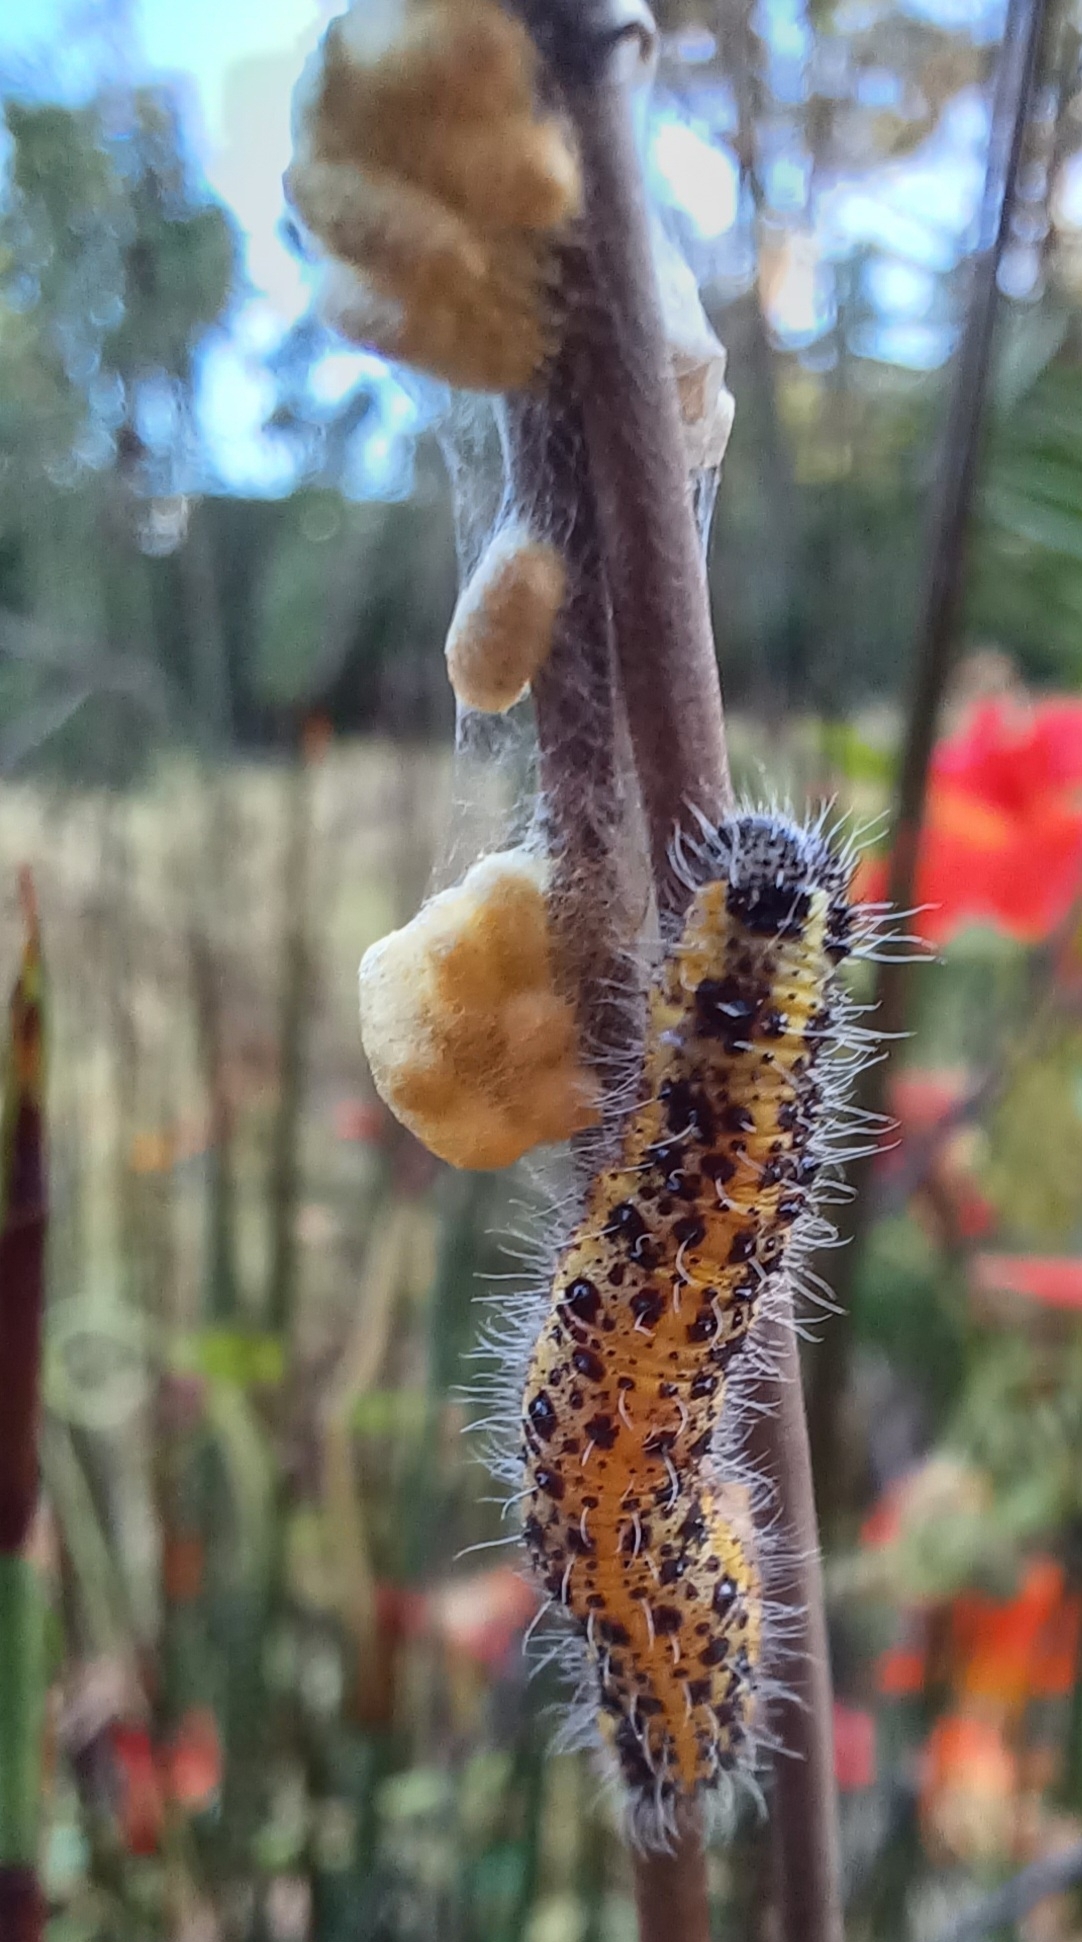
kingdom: Animalia
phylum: Arthropoda
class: Insecta
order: Hymenoptera
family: Braconidae
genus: Cotesia
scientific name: Cotesia glomerata
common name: Parasitoid wasp
